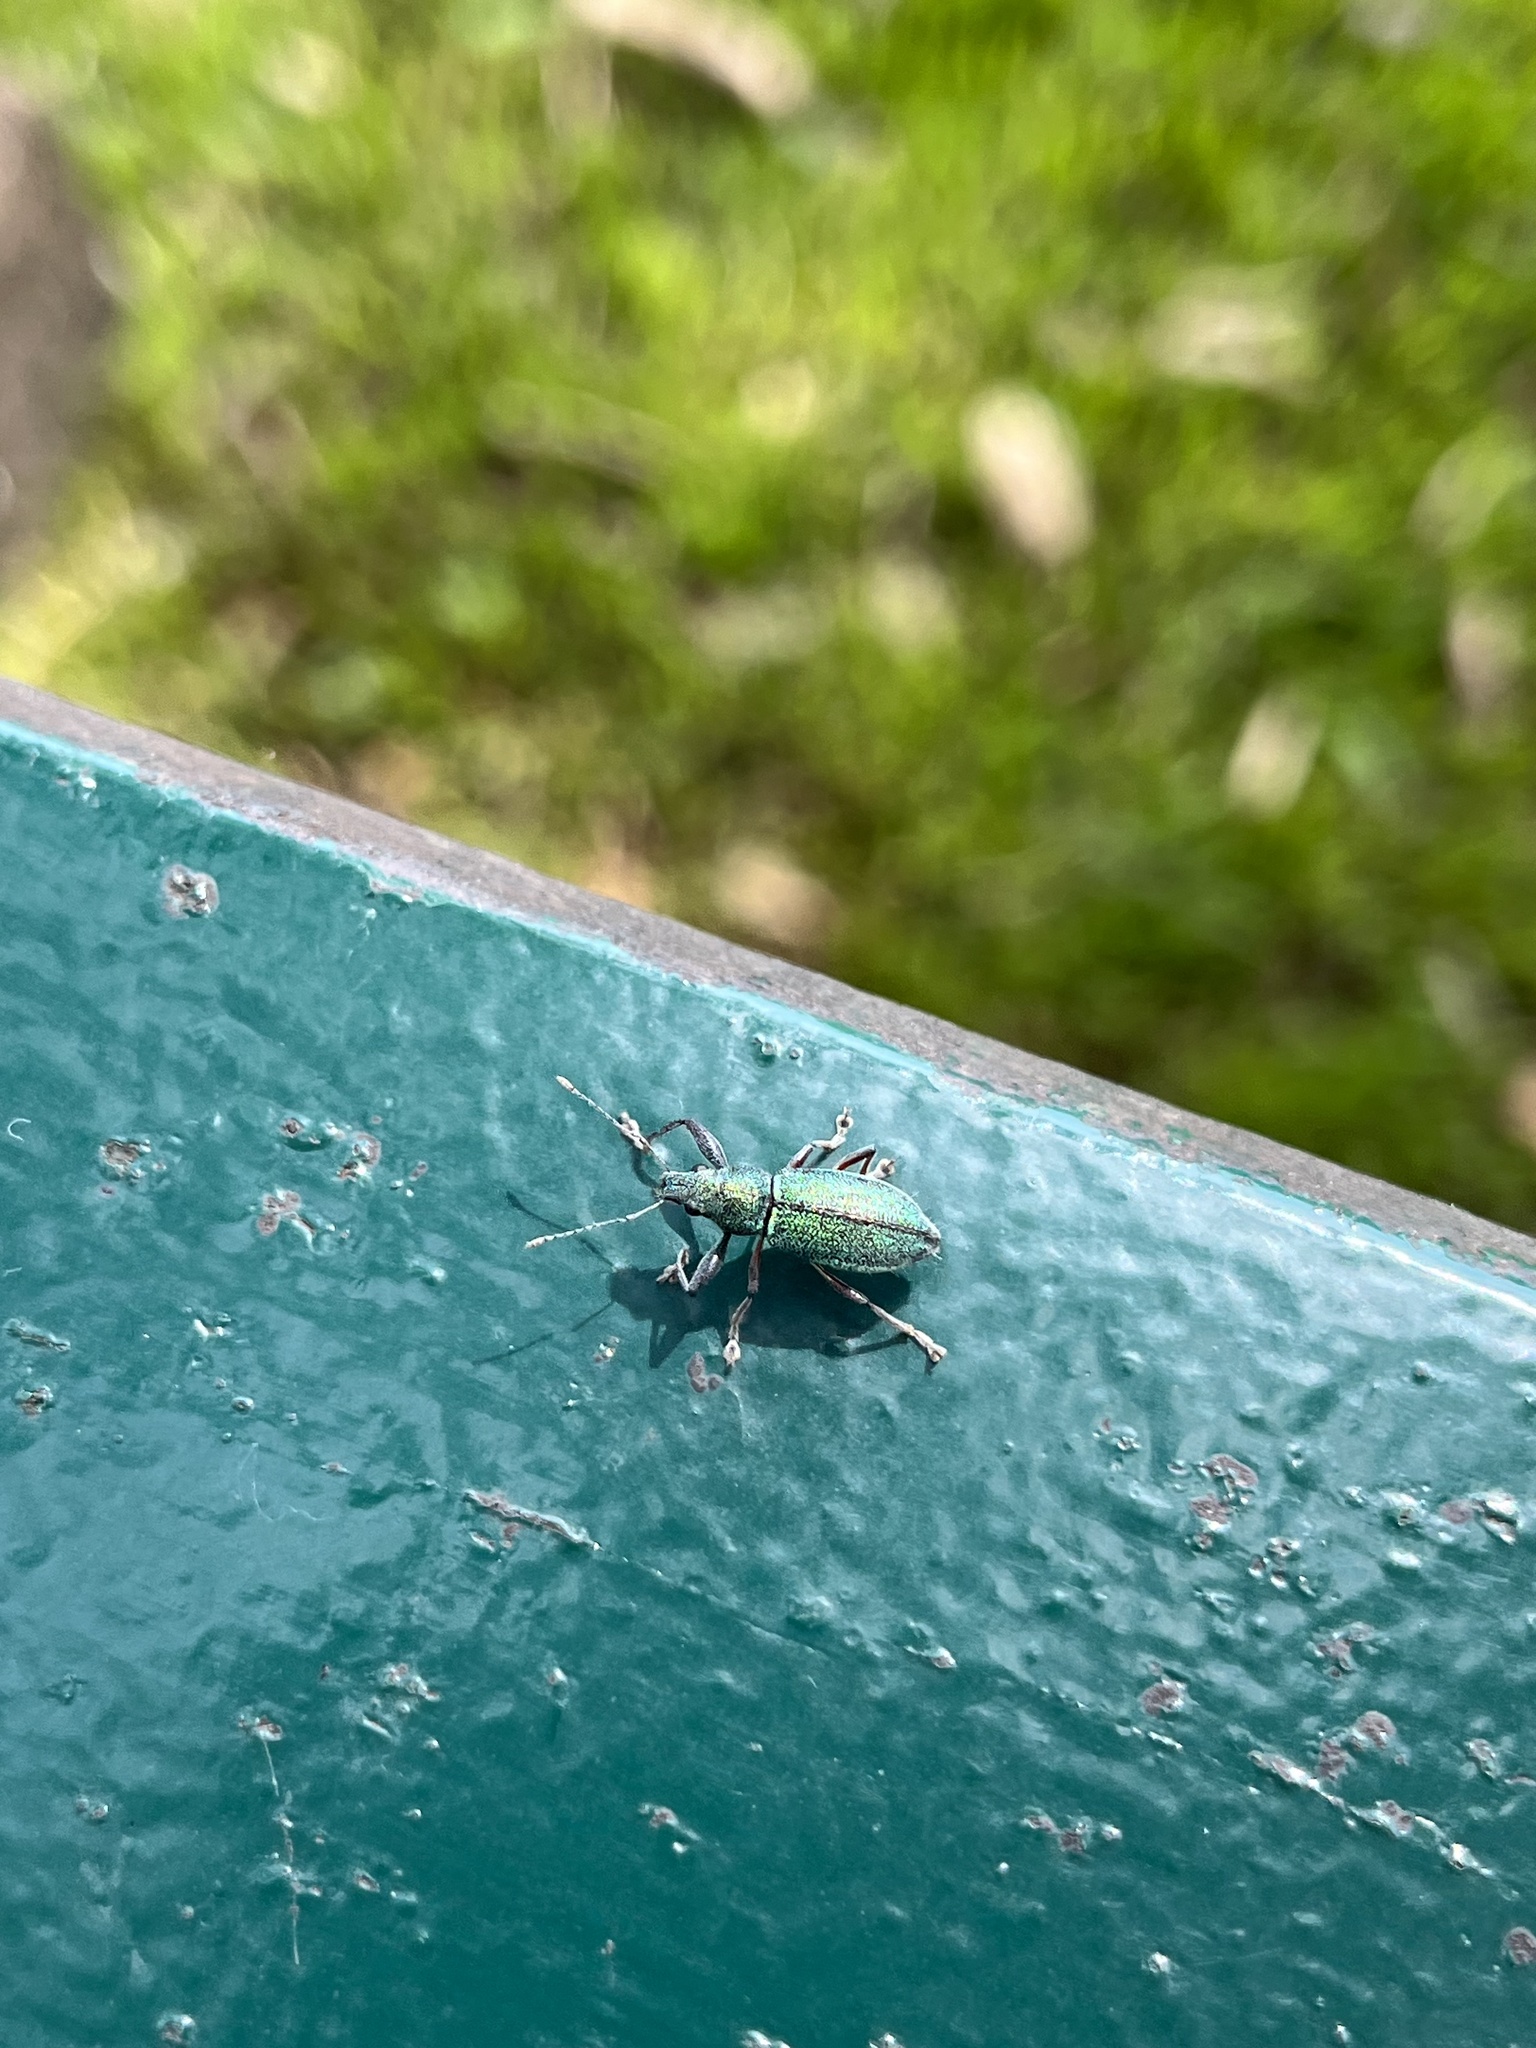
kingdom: Animalia
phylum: Arthropoda
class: Insecta
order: Coleoptera
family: Curculionidae
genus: Naupactus
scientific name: Naupactus auricinctus
